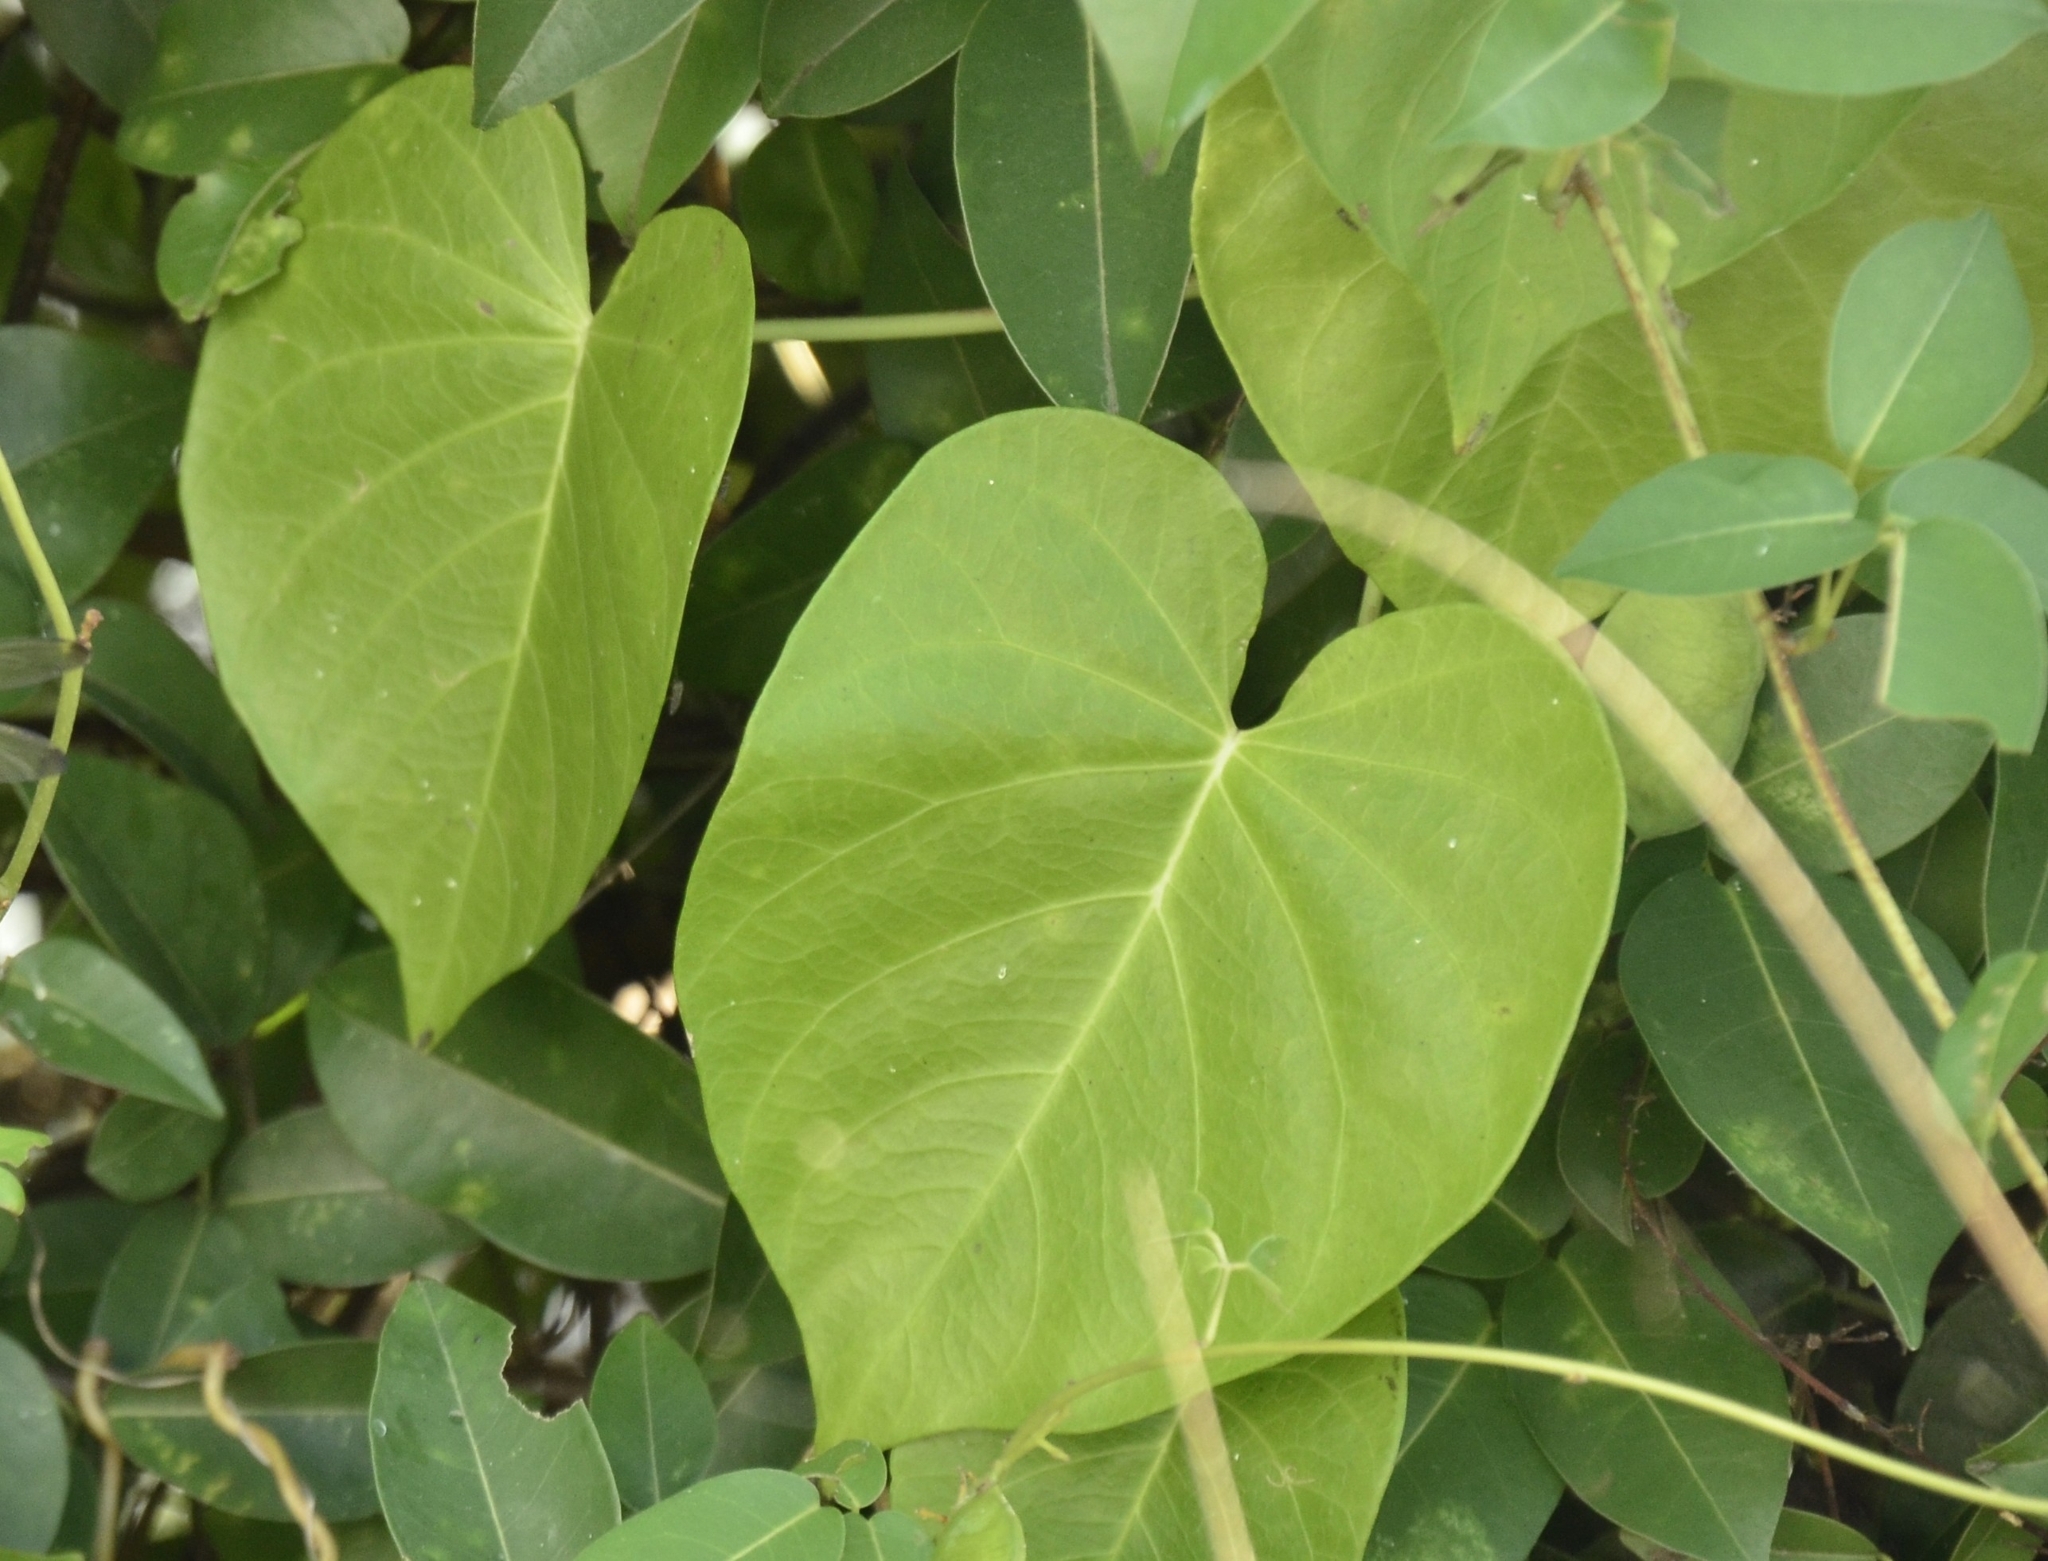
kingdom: Plantae
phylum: Tracheophyta
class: Magnoliopsida
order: Solanales
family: Convolvulaceae
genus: Ipomoea
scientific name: Ipomoea violacea
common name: Beach moonflower
